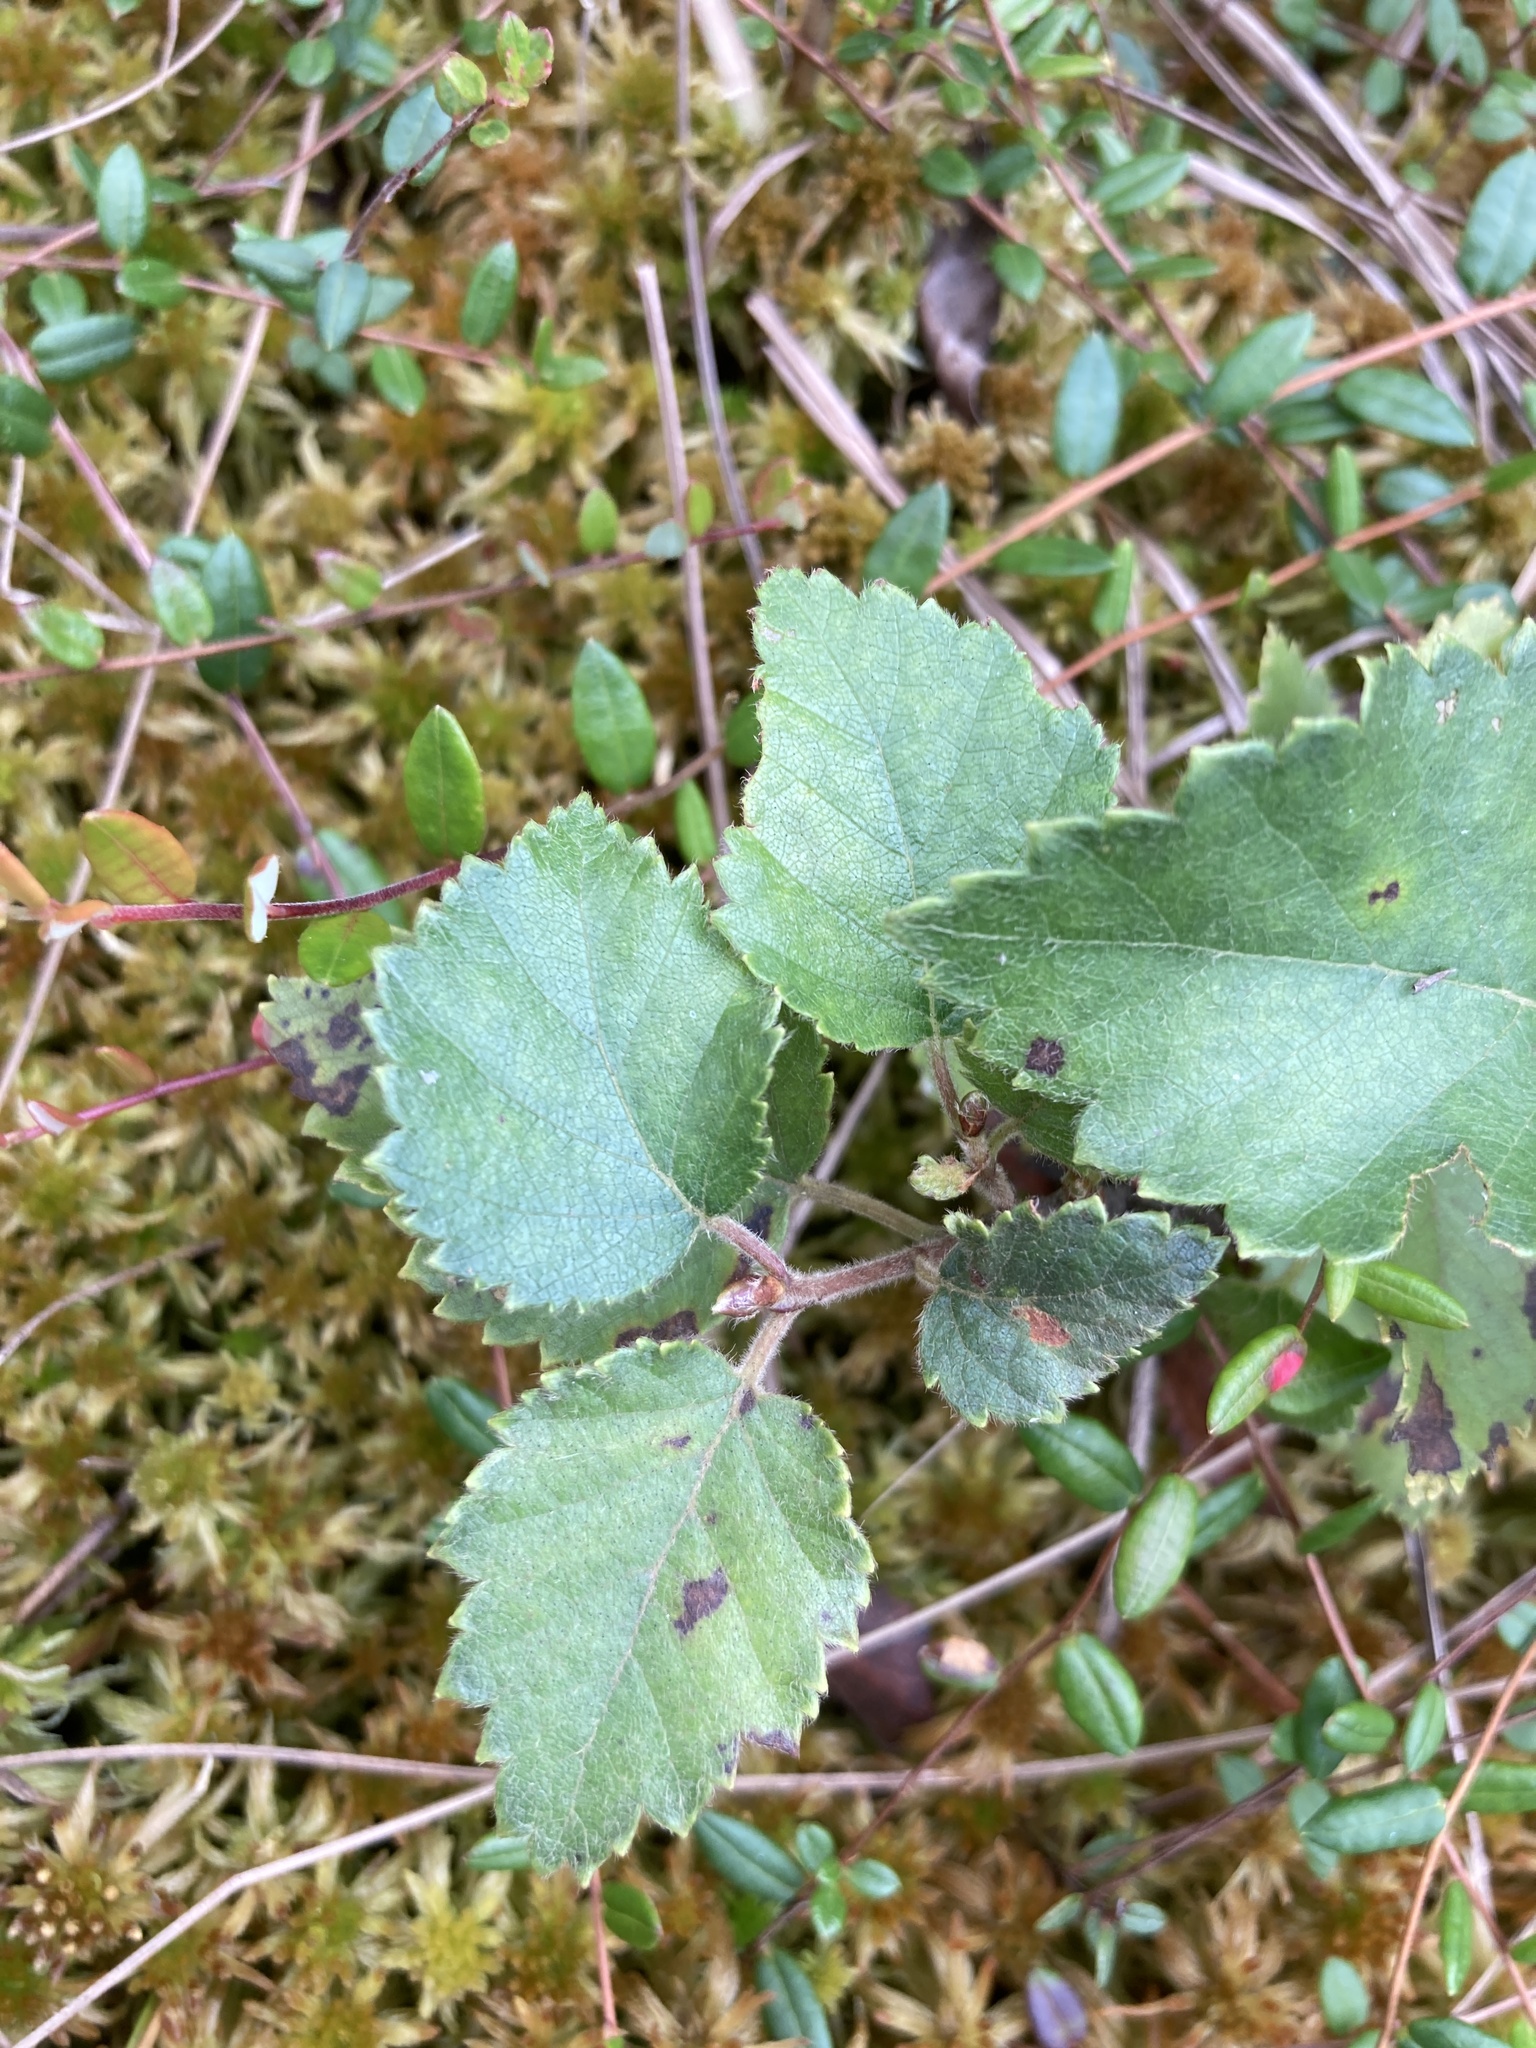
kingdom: Plantae
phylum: Tracheophyta
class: Magnoliopsida
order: Fagales
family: Betulaceae
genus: Betula
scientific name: Betula pubescens
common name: Downy birch
